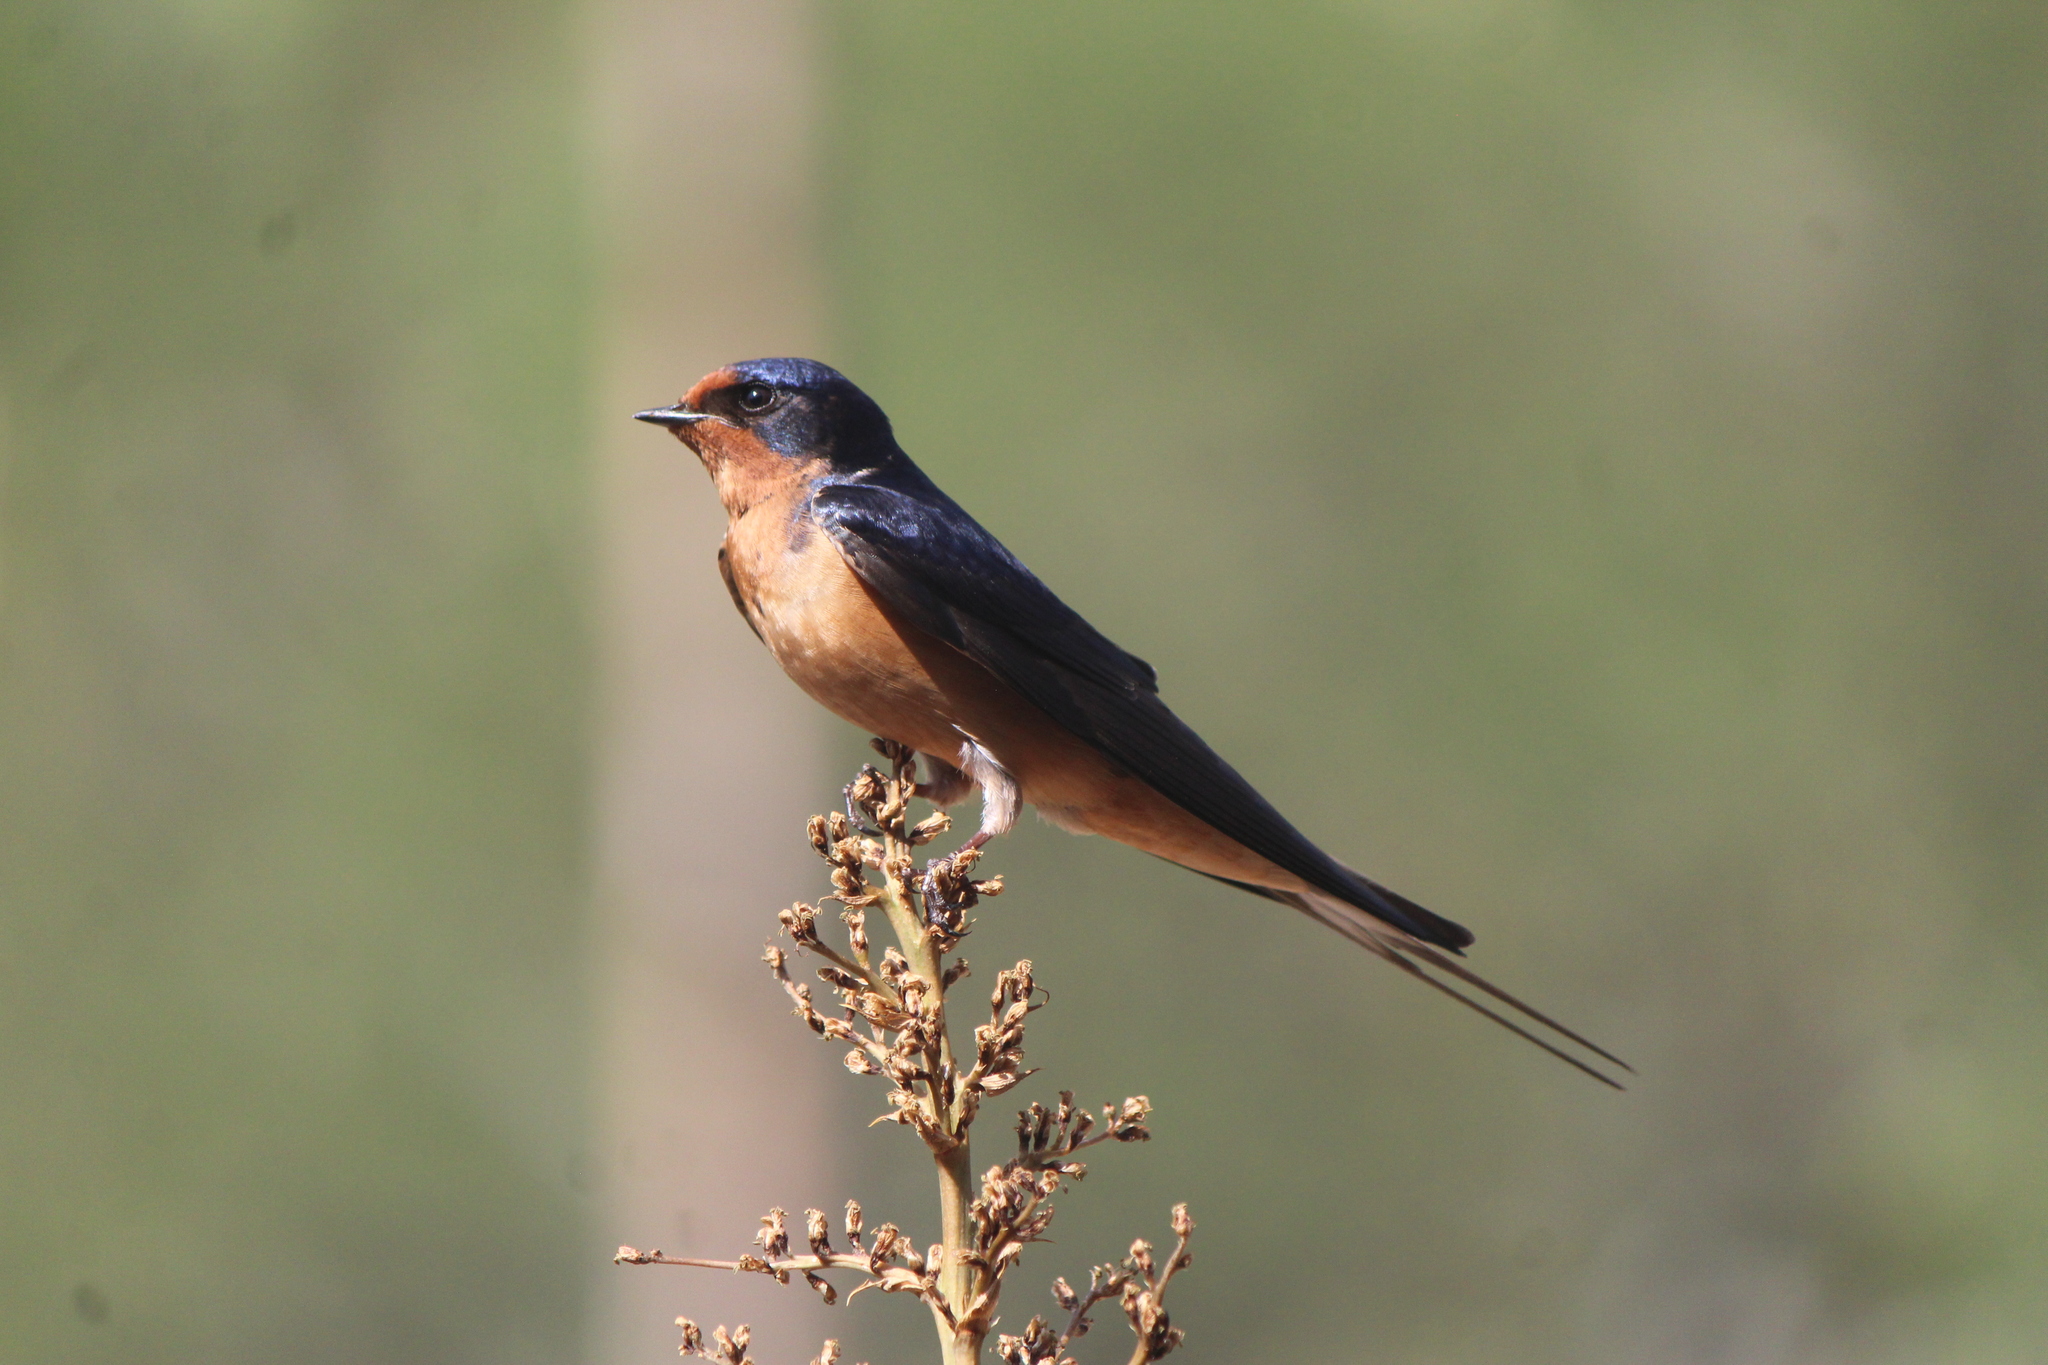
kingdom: Animalia
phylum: Chordata
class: Aves
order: Passeriformes
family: Hirundinidae
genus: Hirundo
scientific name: Hirundo rustica
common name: Barn swallow
